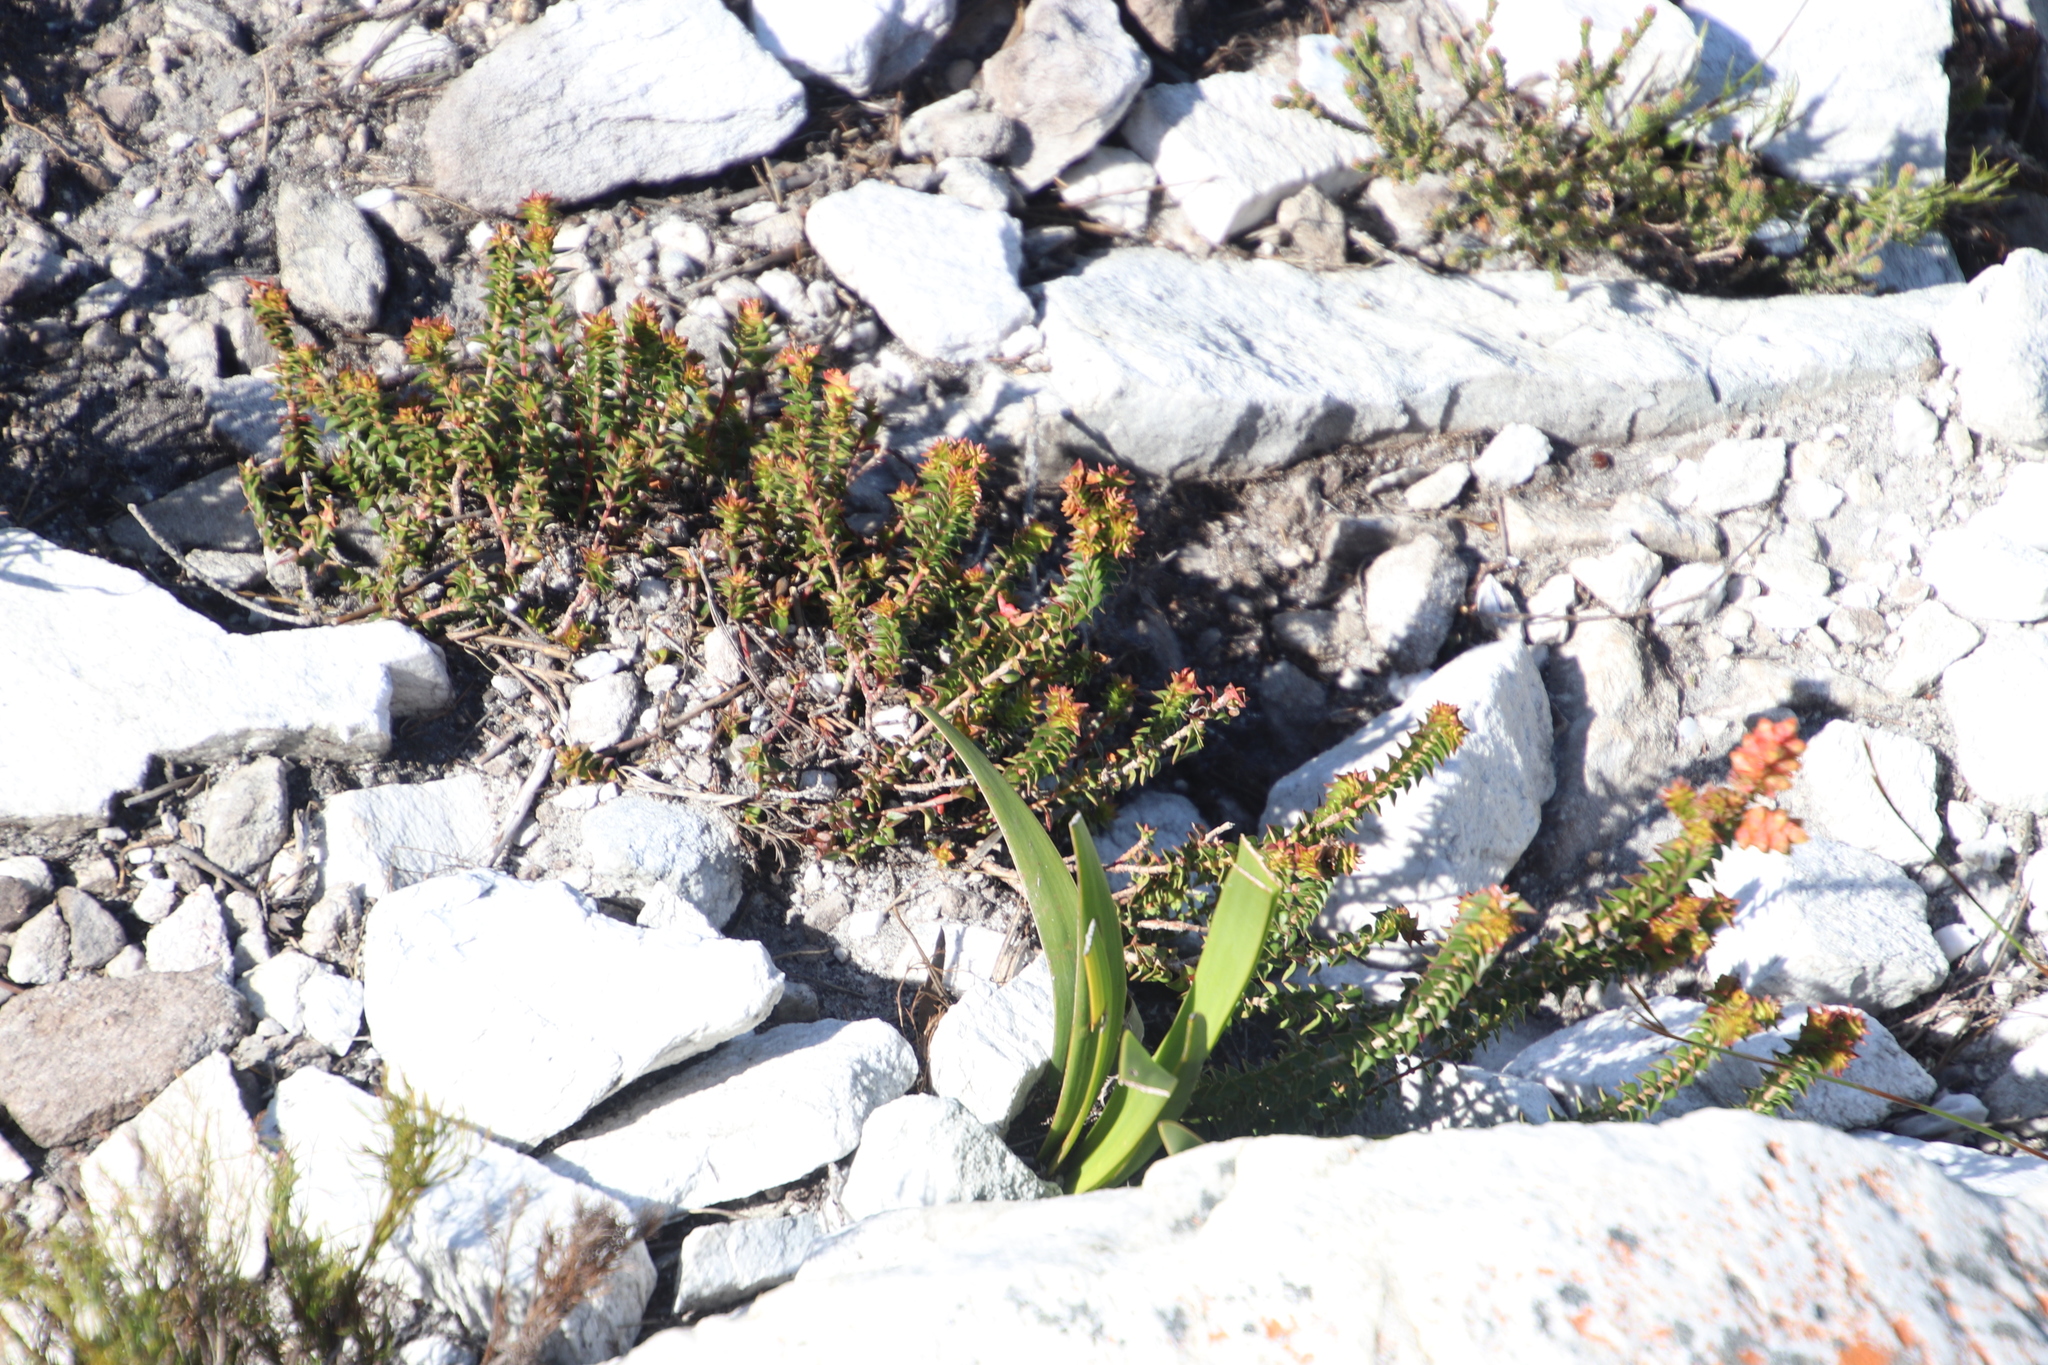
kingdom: Plantae
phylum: Tracheophyta
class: Magnoliopsida
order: Myrtales
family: Penaeaceae
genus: Penaea
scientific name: Penaea mucronata
